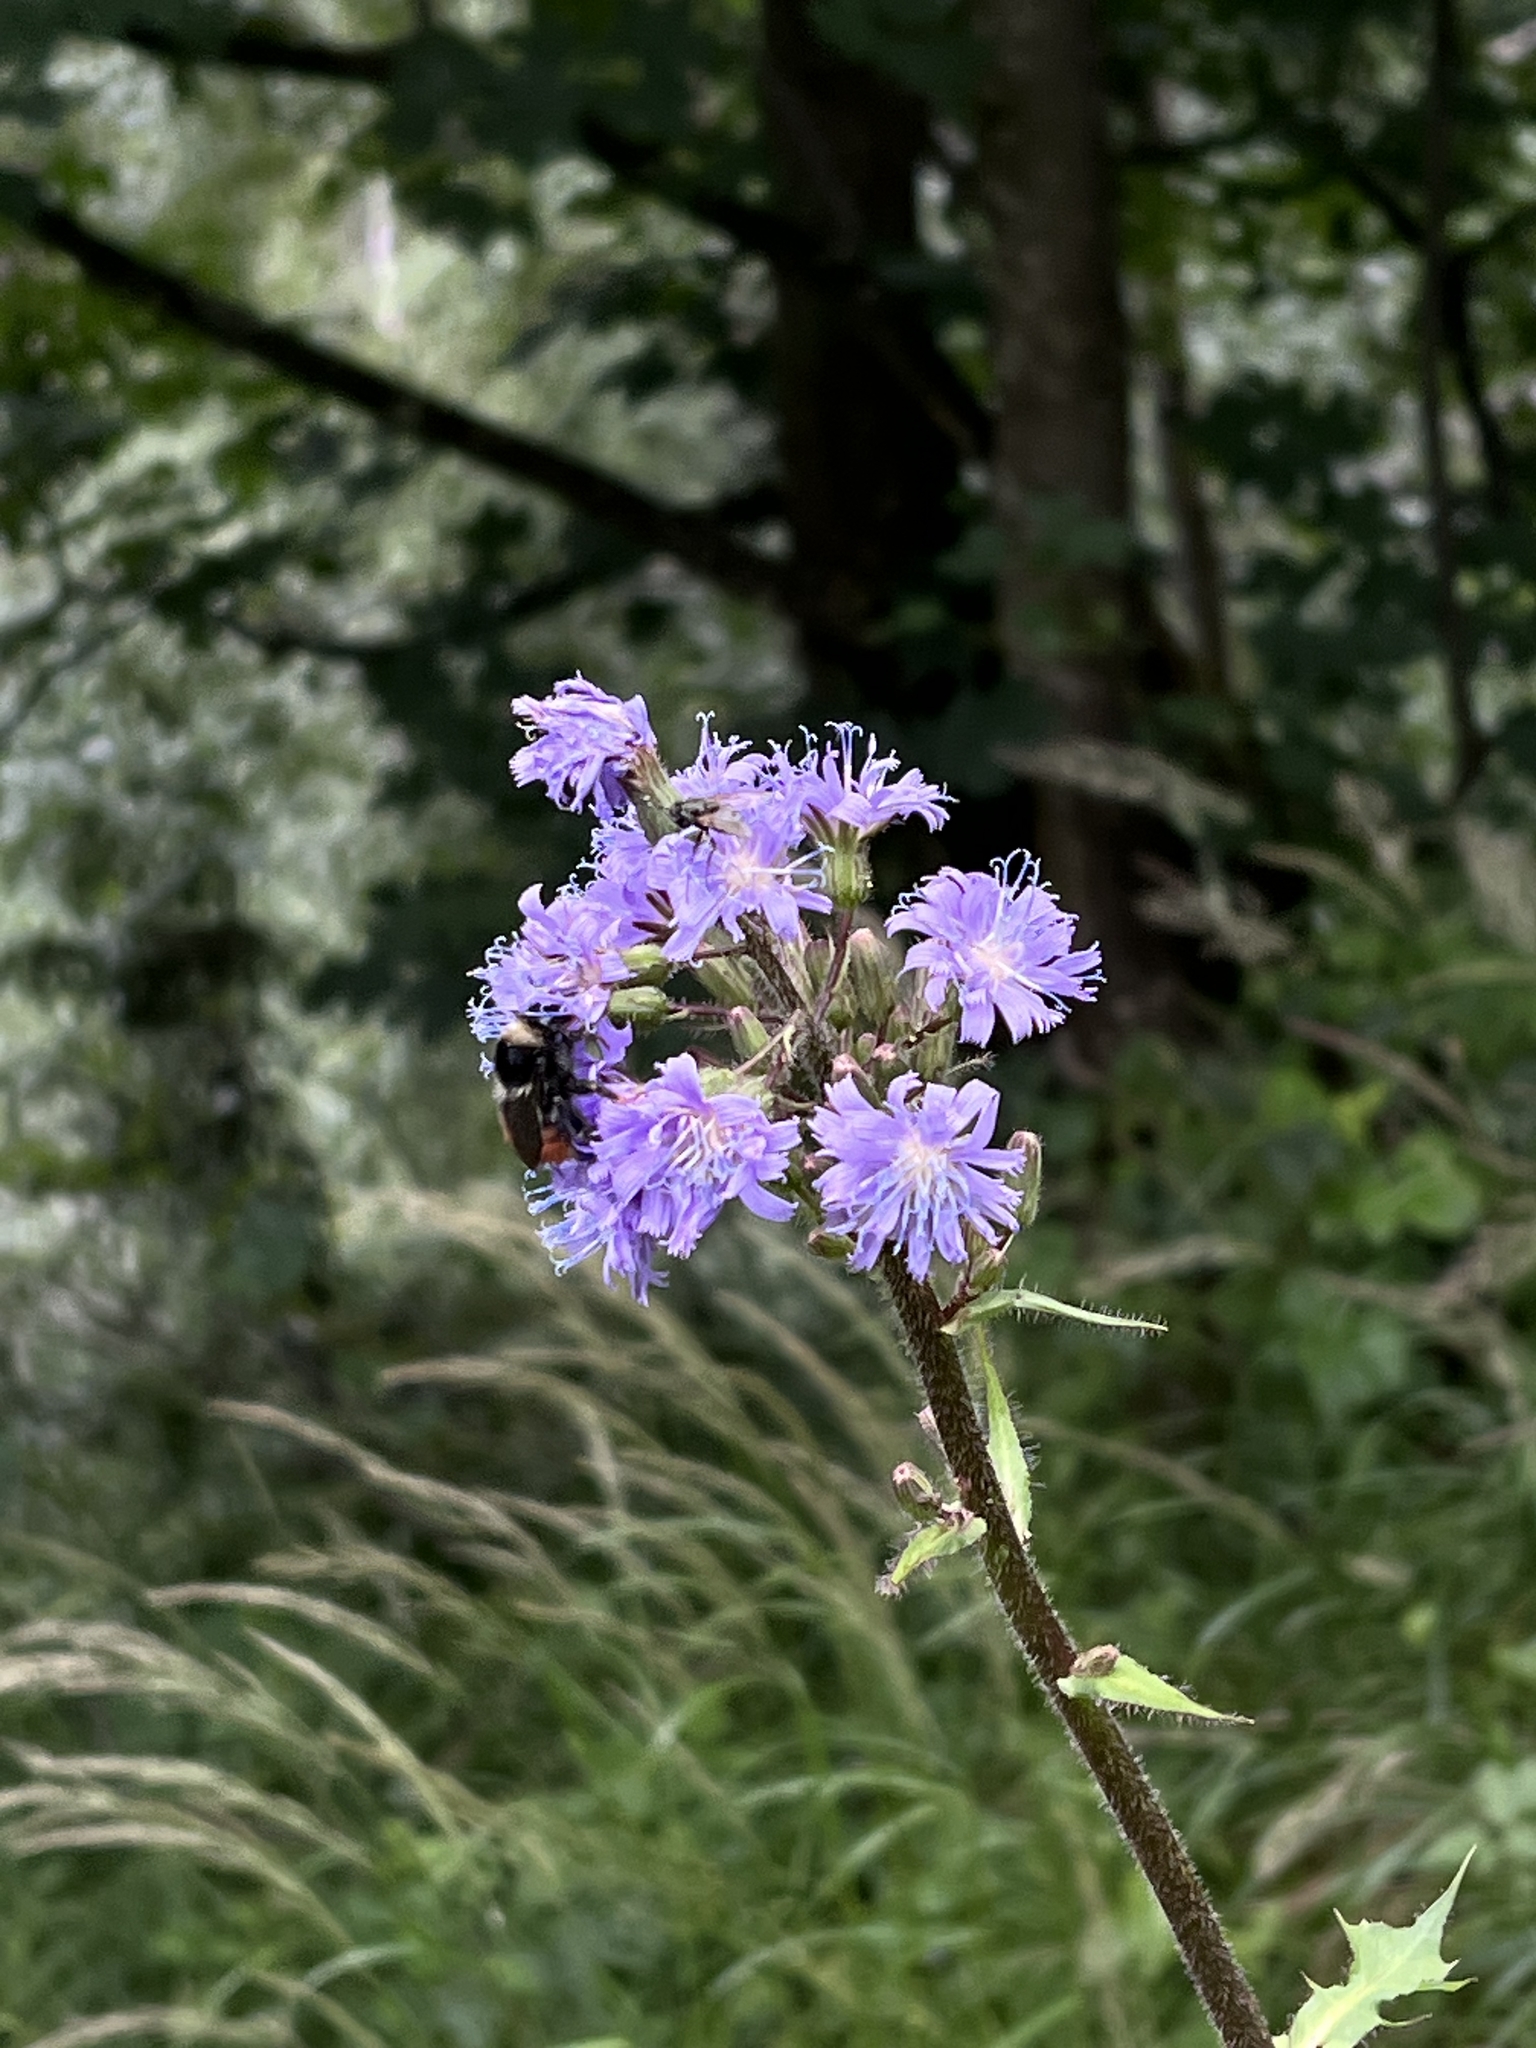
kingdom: Plantae
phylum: Tracheophyta
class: Magnoliopsida
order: Asterales
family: Asteraceae
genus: Cicerbita
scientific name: Cicerbita alpina
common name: Alpine blue-sow-thistle
